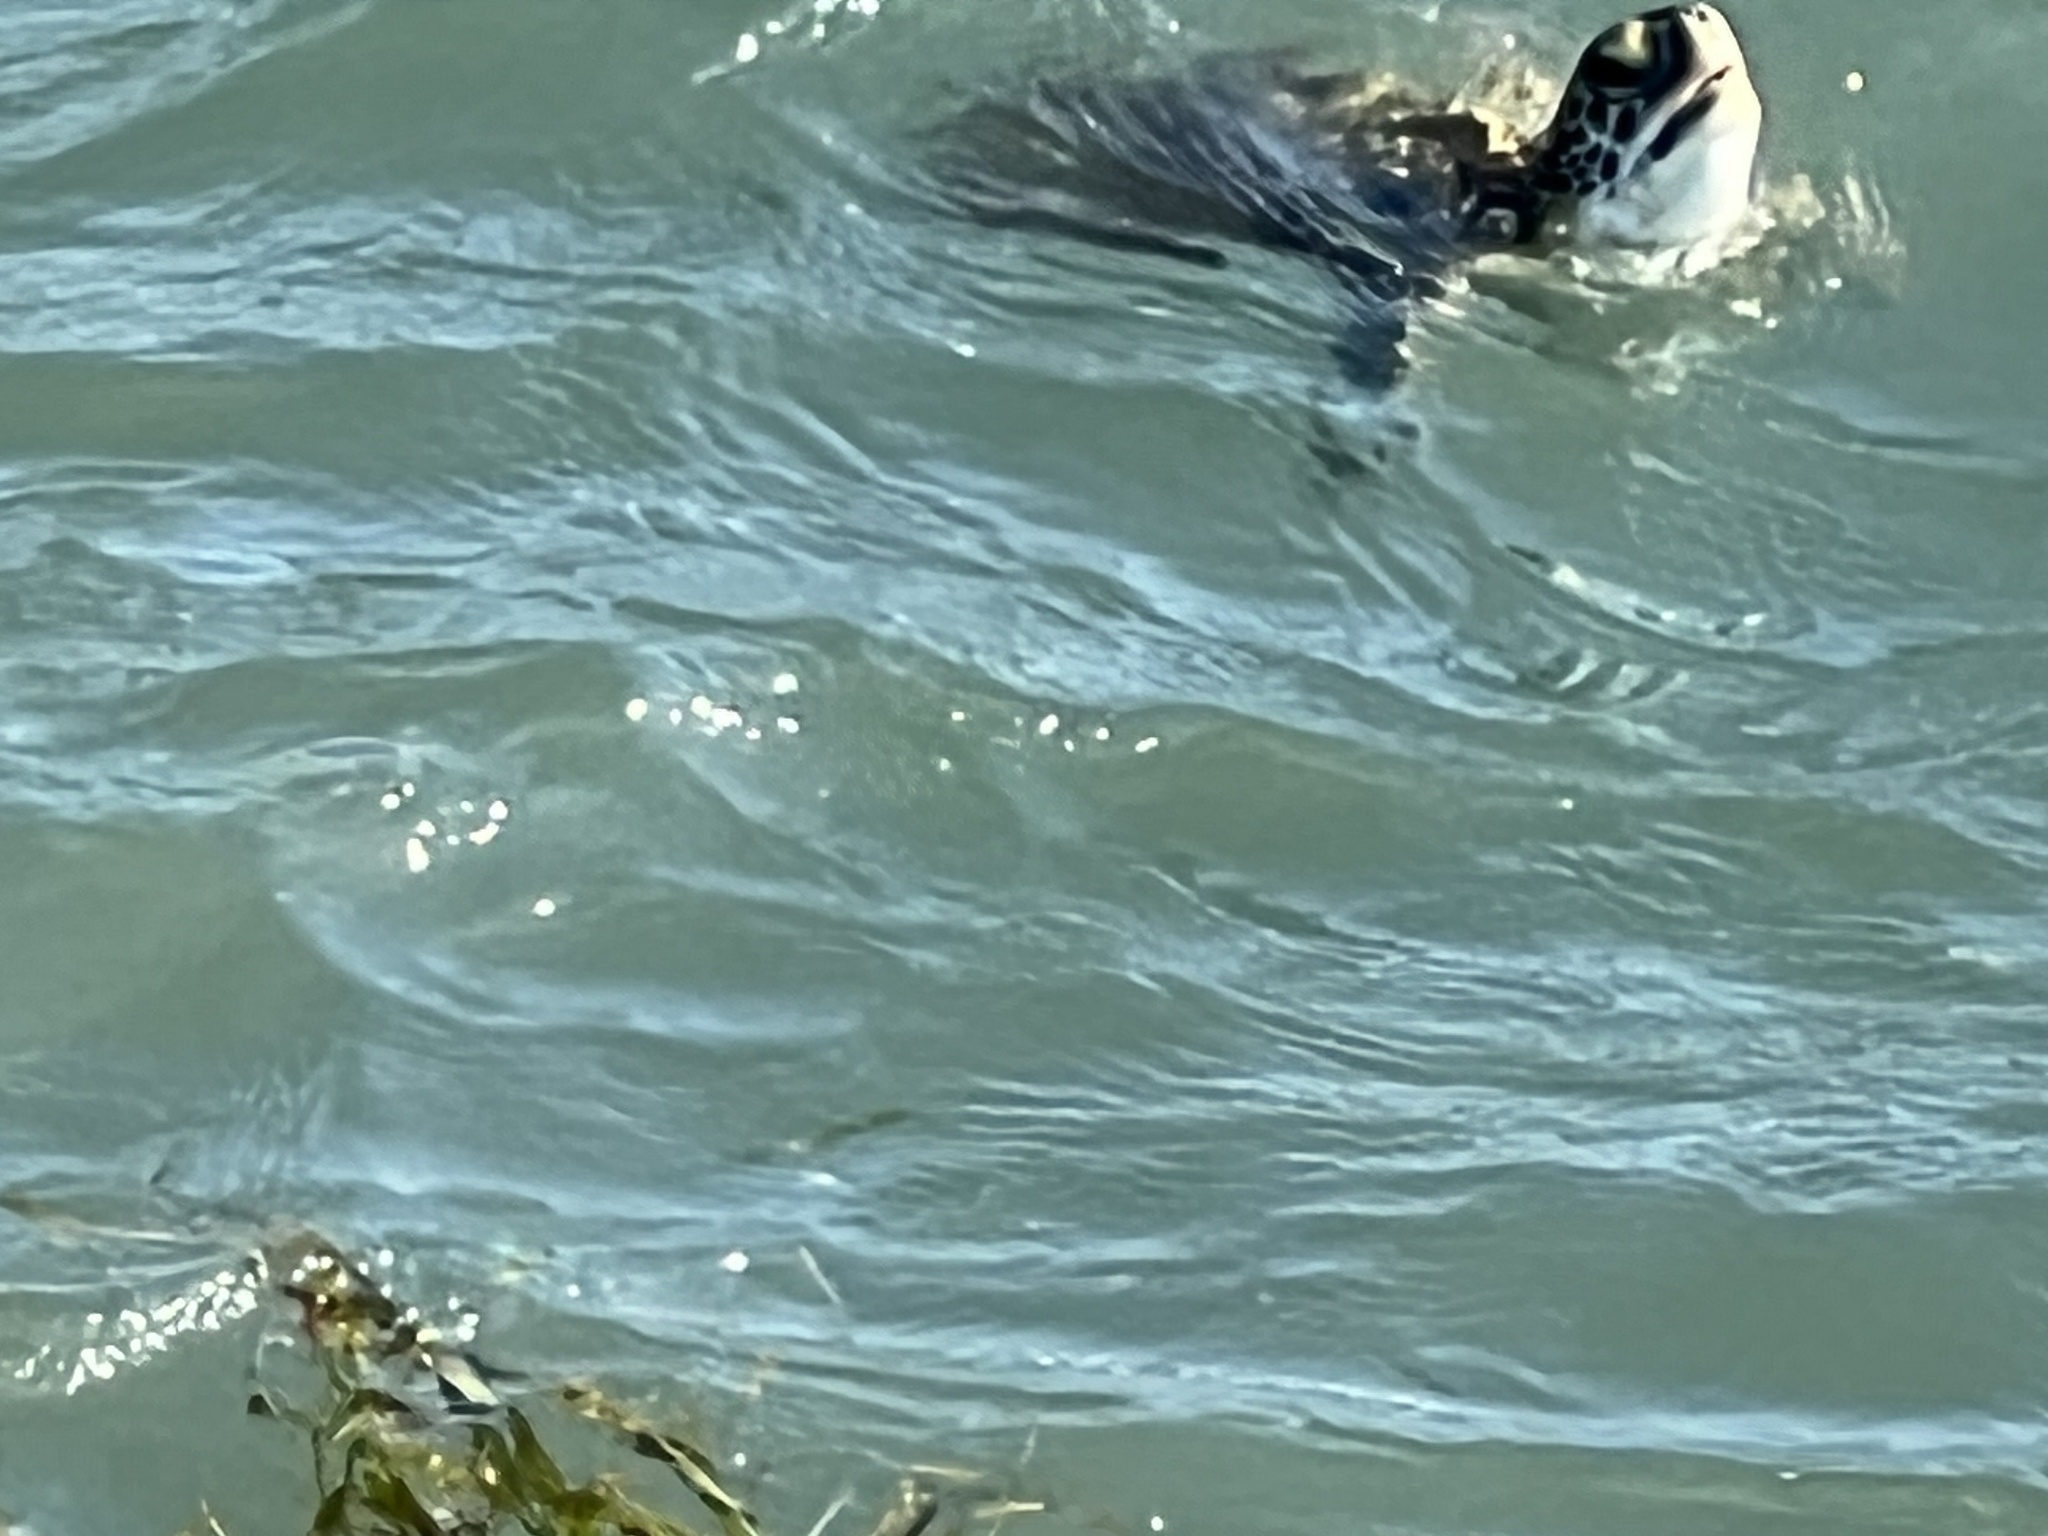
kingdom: Animalia
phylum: Chordata
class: Testudines
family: Cheloniidae
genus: Chelonia
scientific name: Chelonia mydas
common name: Green turtle
